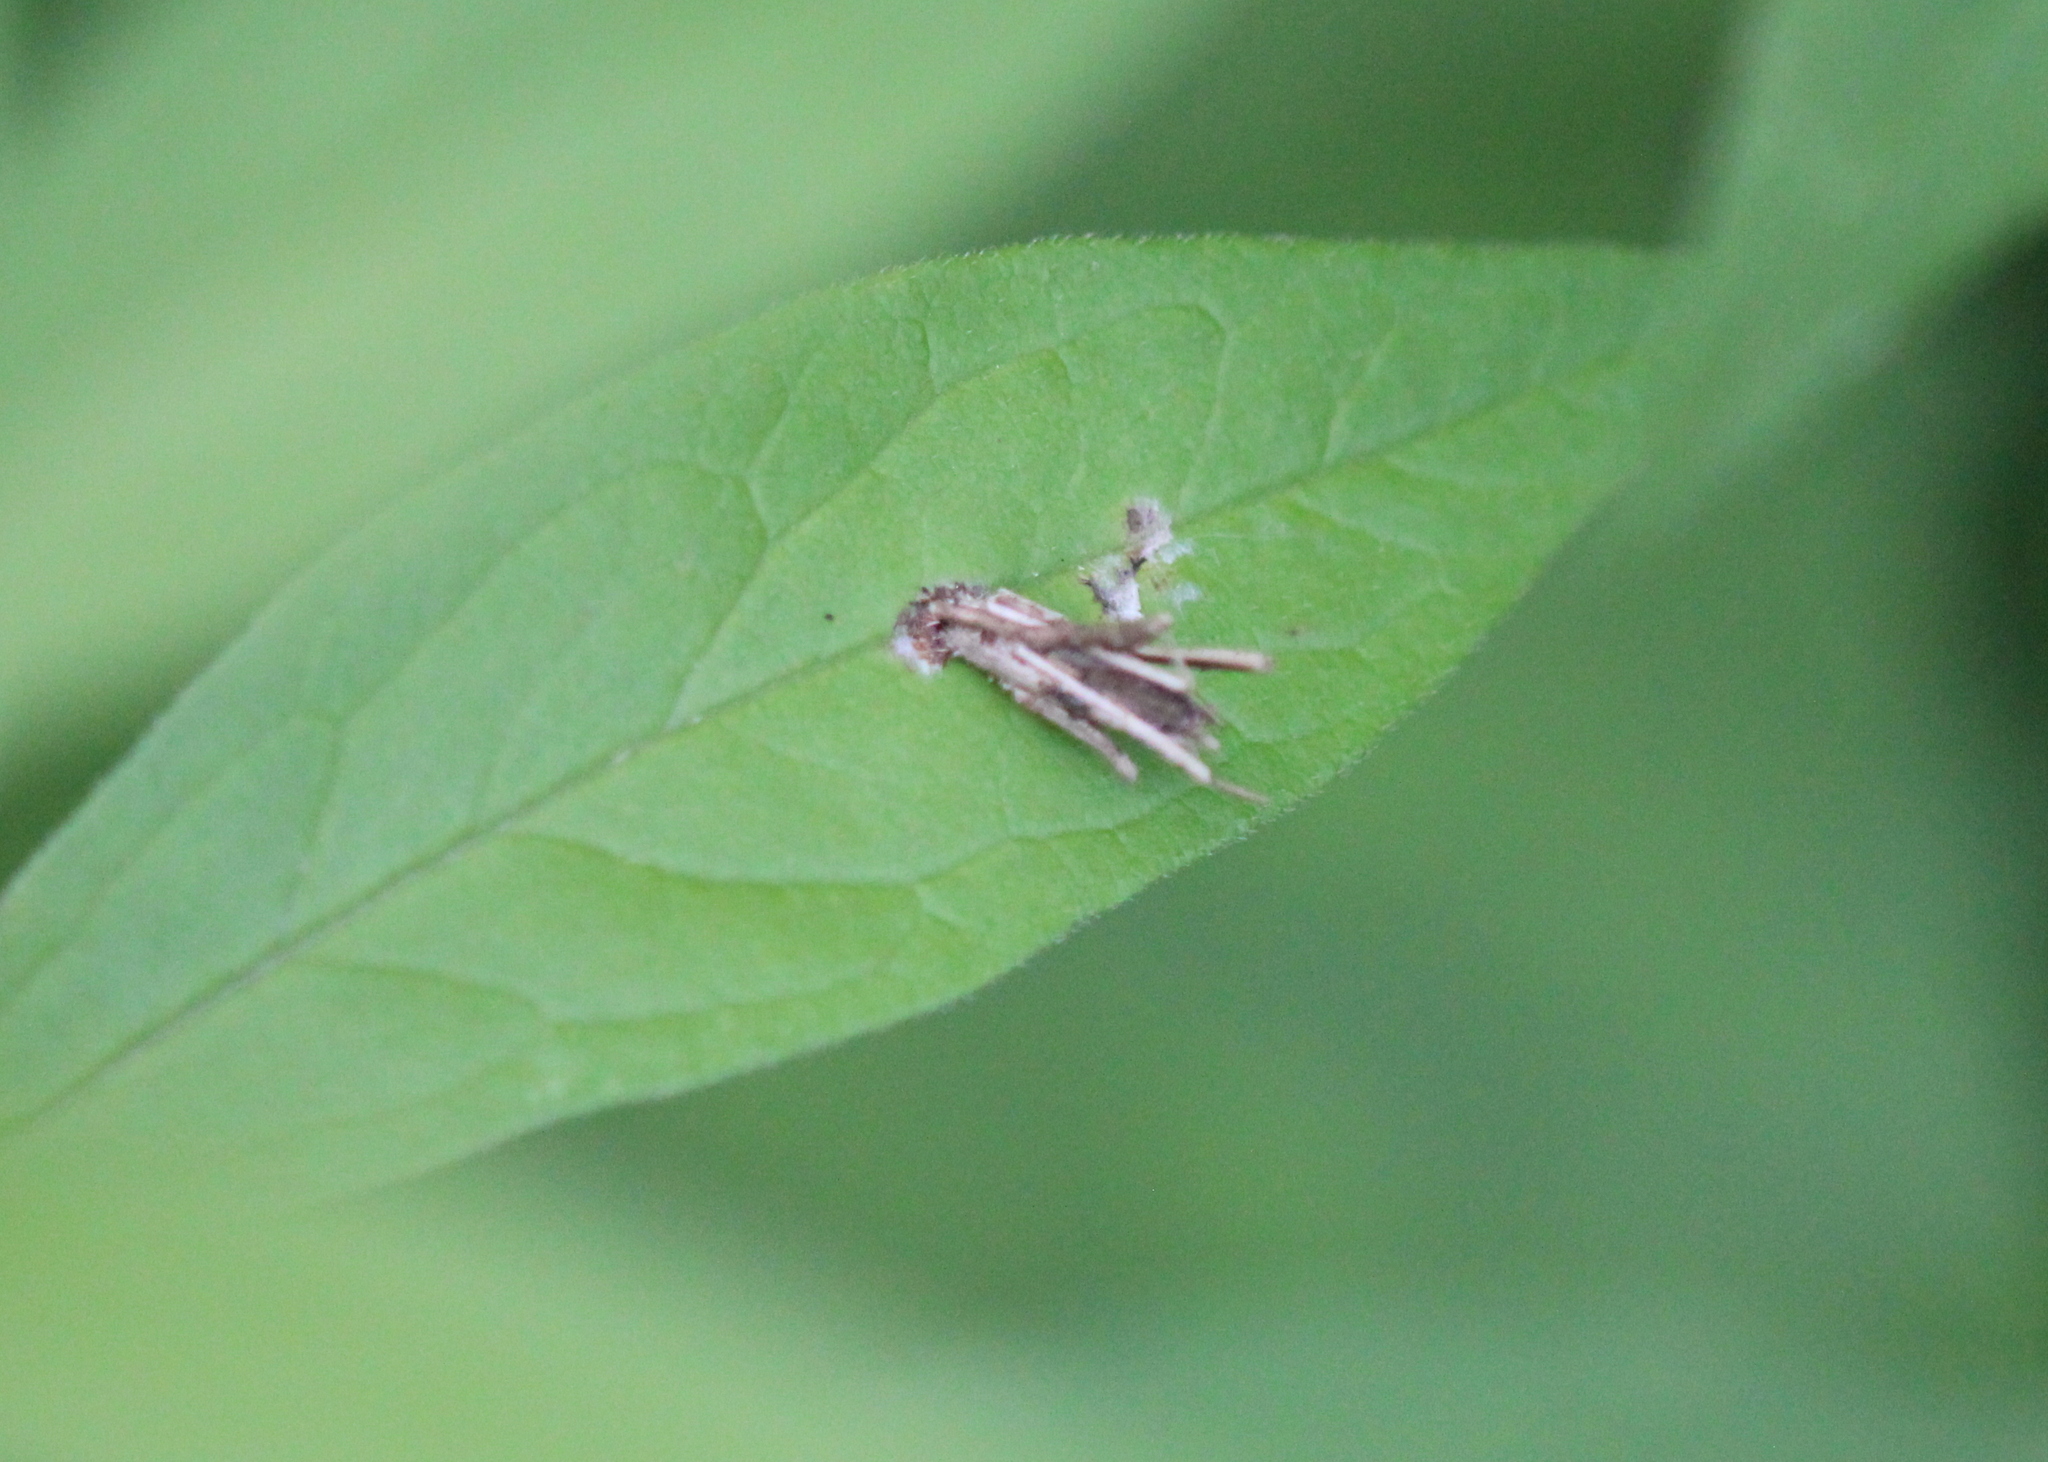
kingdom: Animalia
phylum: Arthropoda
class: Insecta
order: Lepidoptera
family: Psychidae
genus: Psyche
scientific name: Psyche casta
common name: Common sweep
